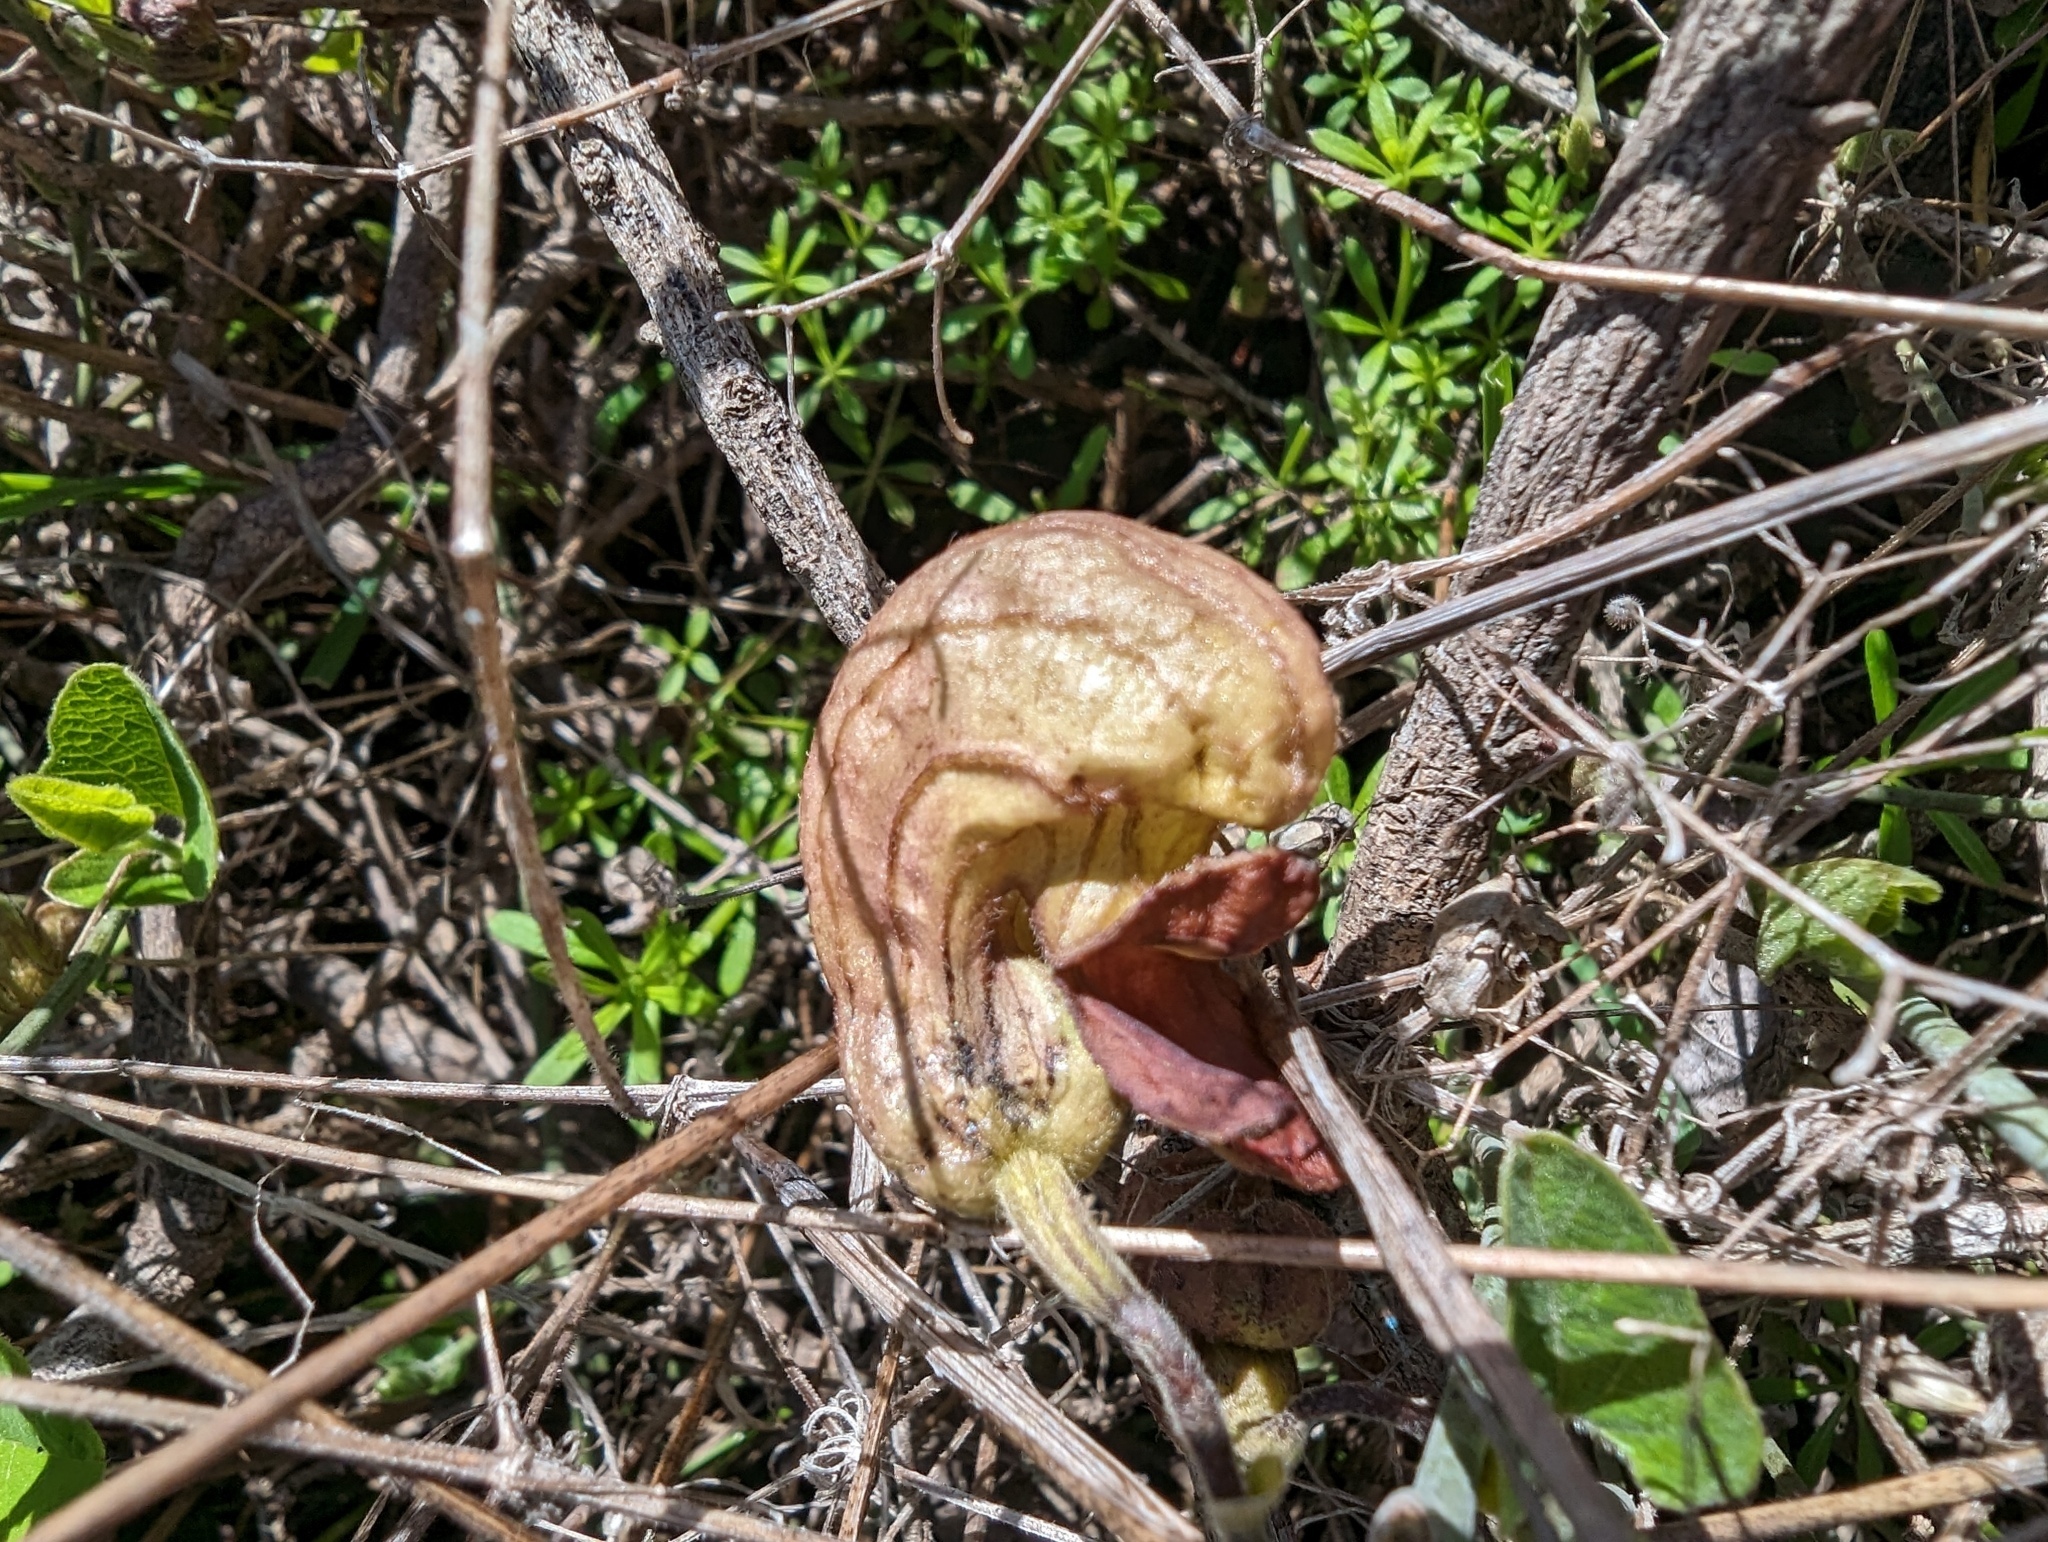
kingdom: Plantae
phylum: Tracheophyta
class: Magnoliopsida
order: Piperales
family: Aristolochiaceae
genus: Isotrema
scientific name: Isotrema californicum
